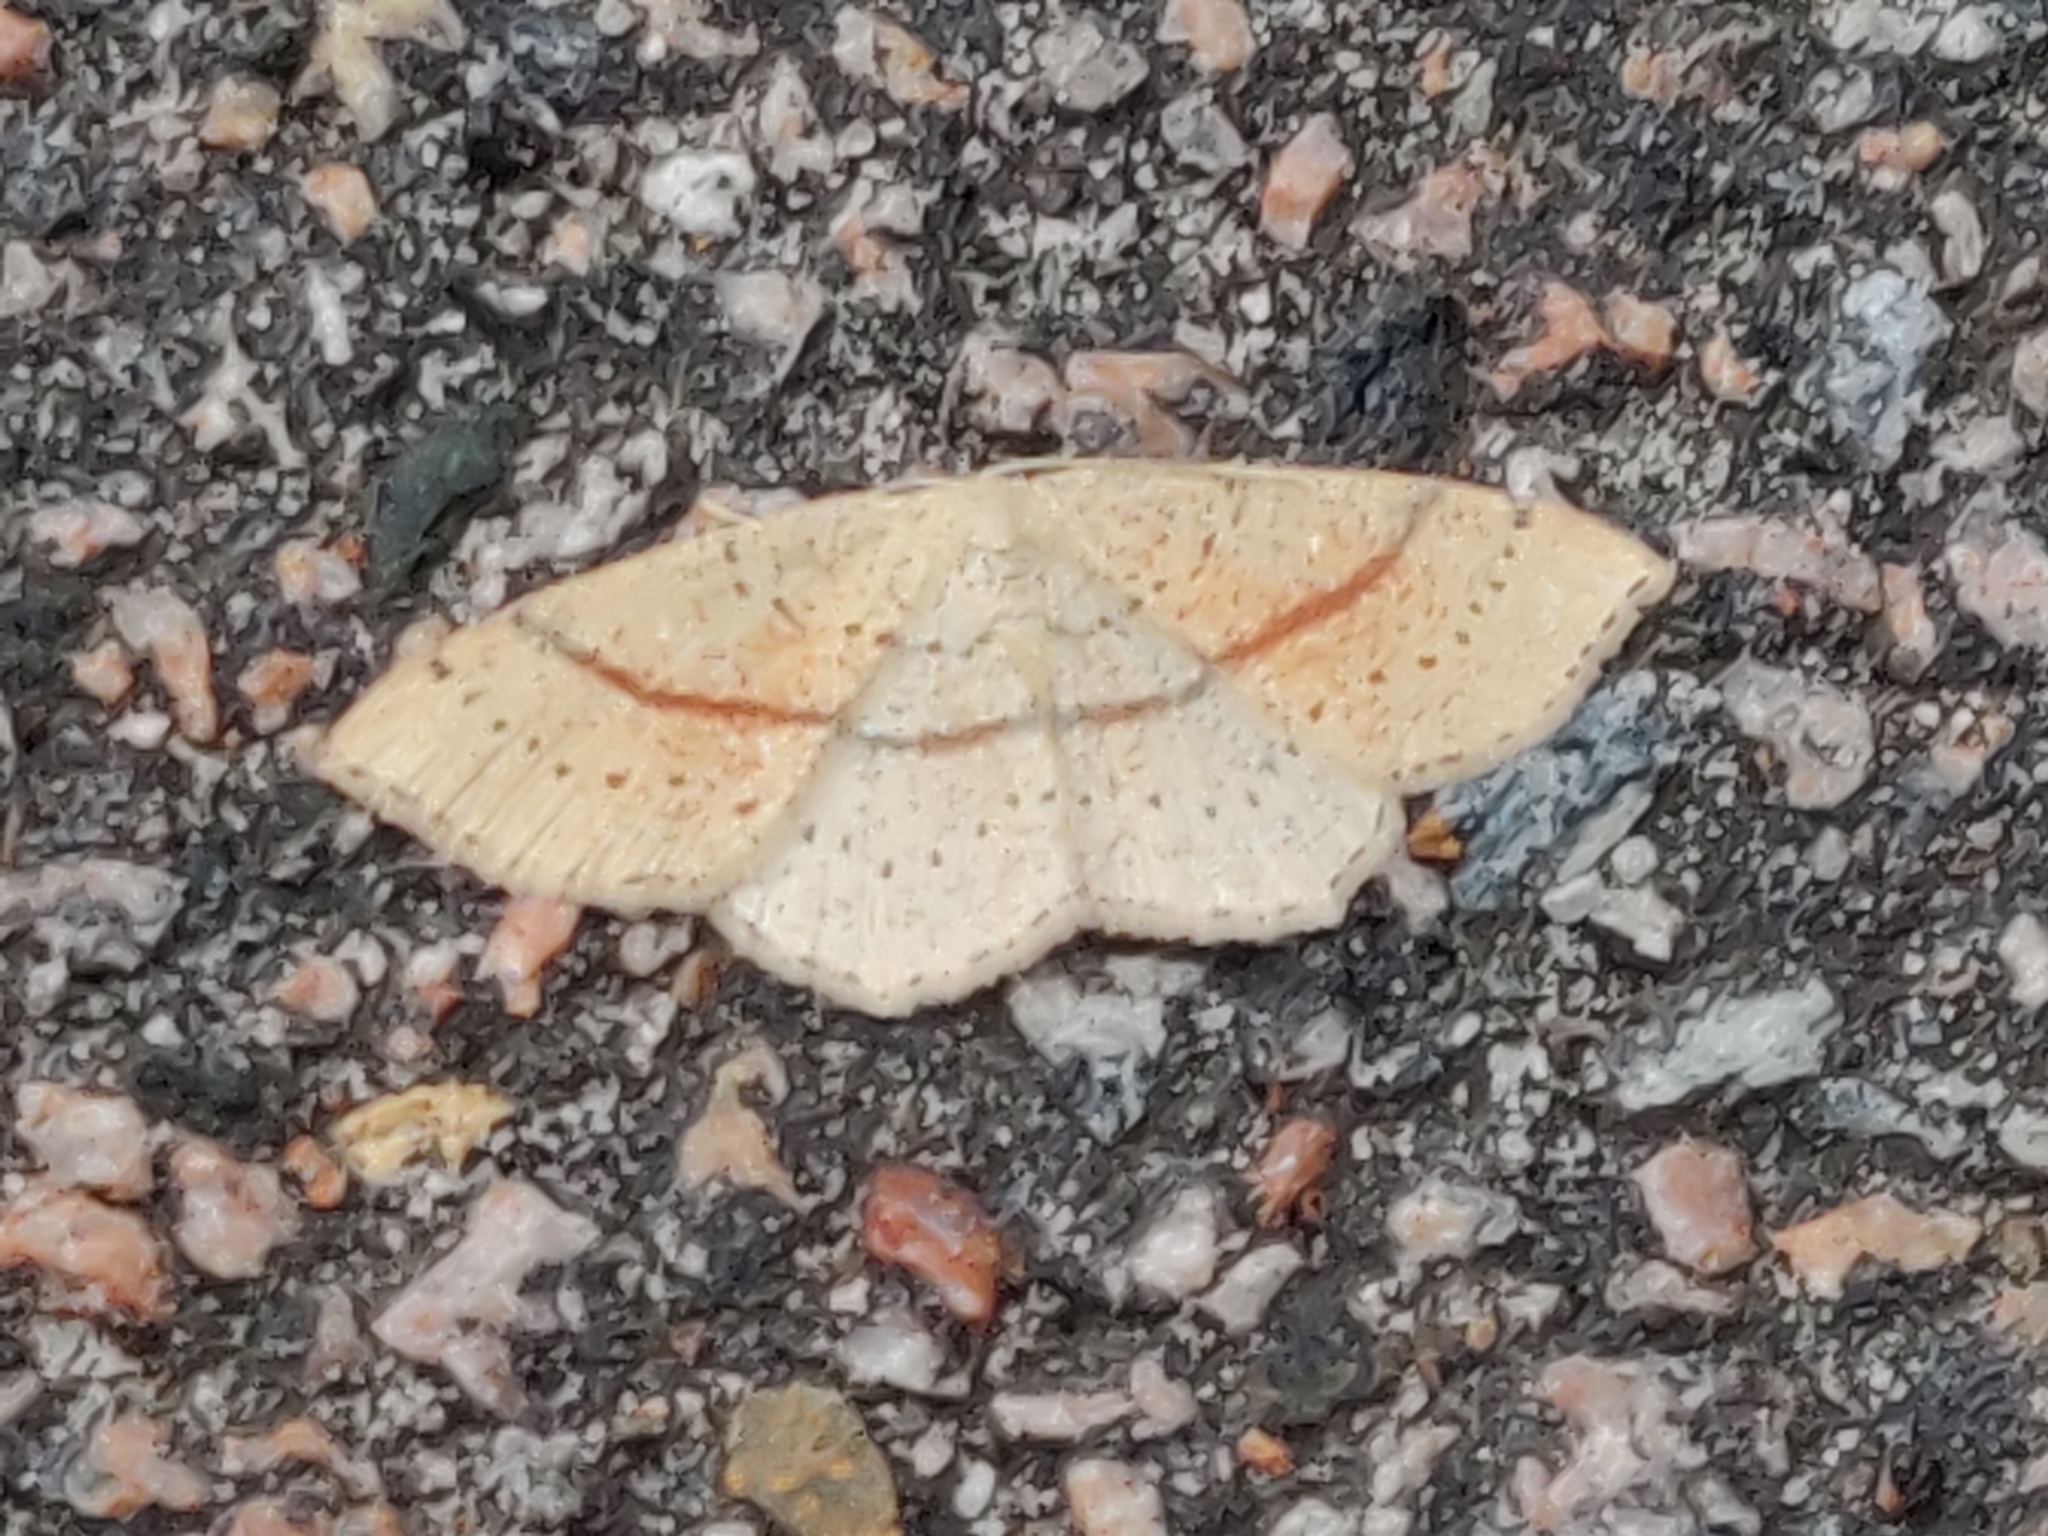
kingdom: Animalia
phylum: Arthropoda
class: Insecta
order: Lepidoptera
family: Geometridae
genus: Cyclophora
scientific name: Cyclophora punctaria
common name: Maiden's blush
